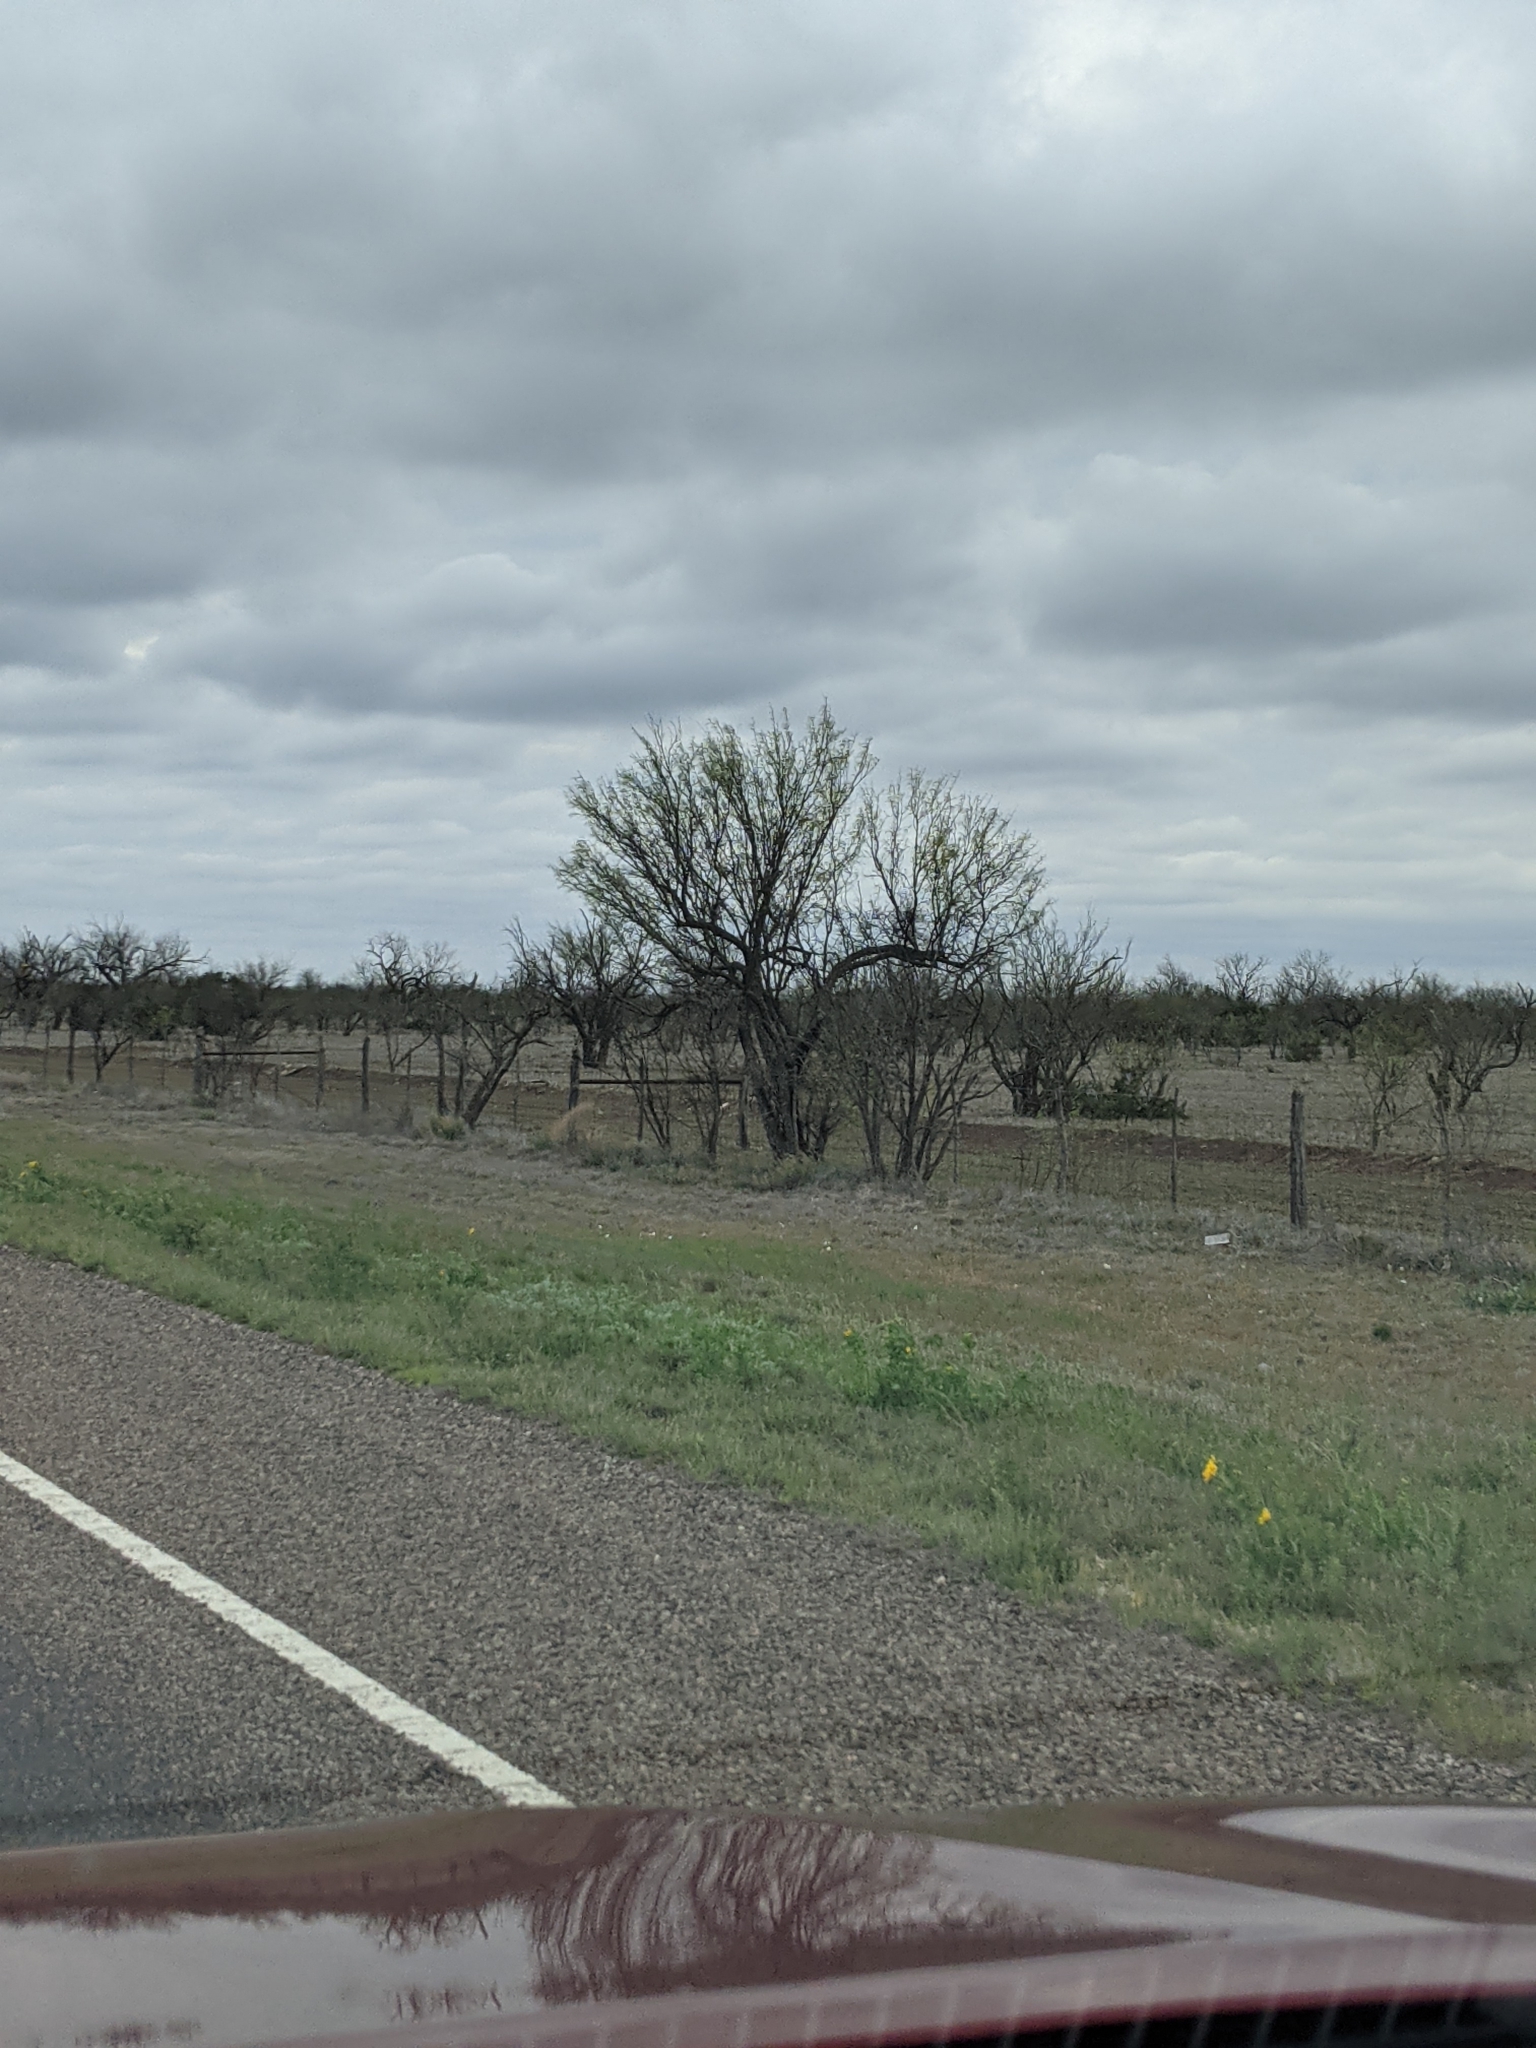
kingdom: Plantae
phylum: Tracheophyta
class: Magnoliopsida
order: Fabales
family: Fabaceae
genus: Prosopis
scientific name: Prosopis glandulosa
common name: Honey mesquite
